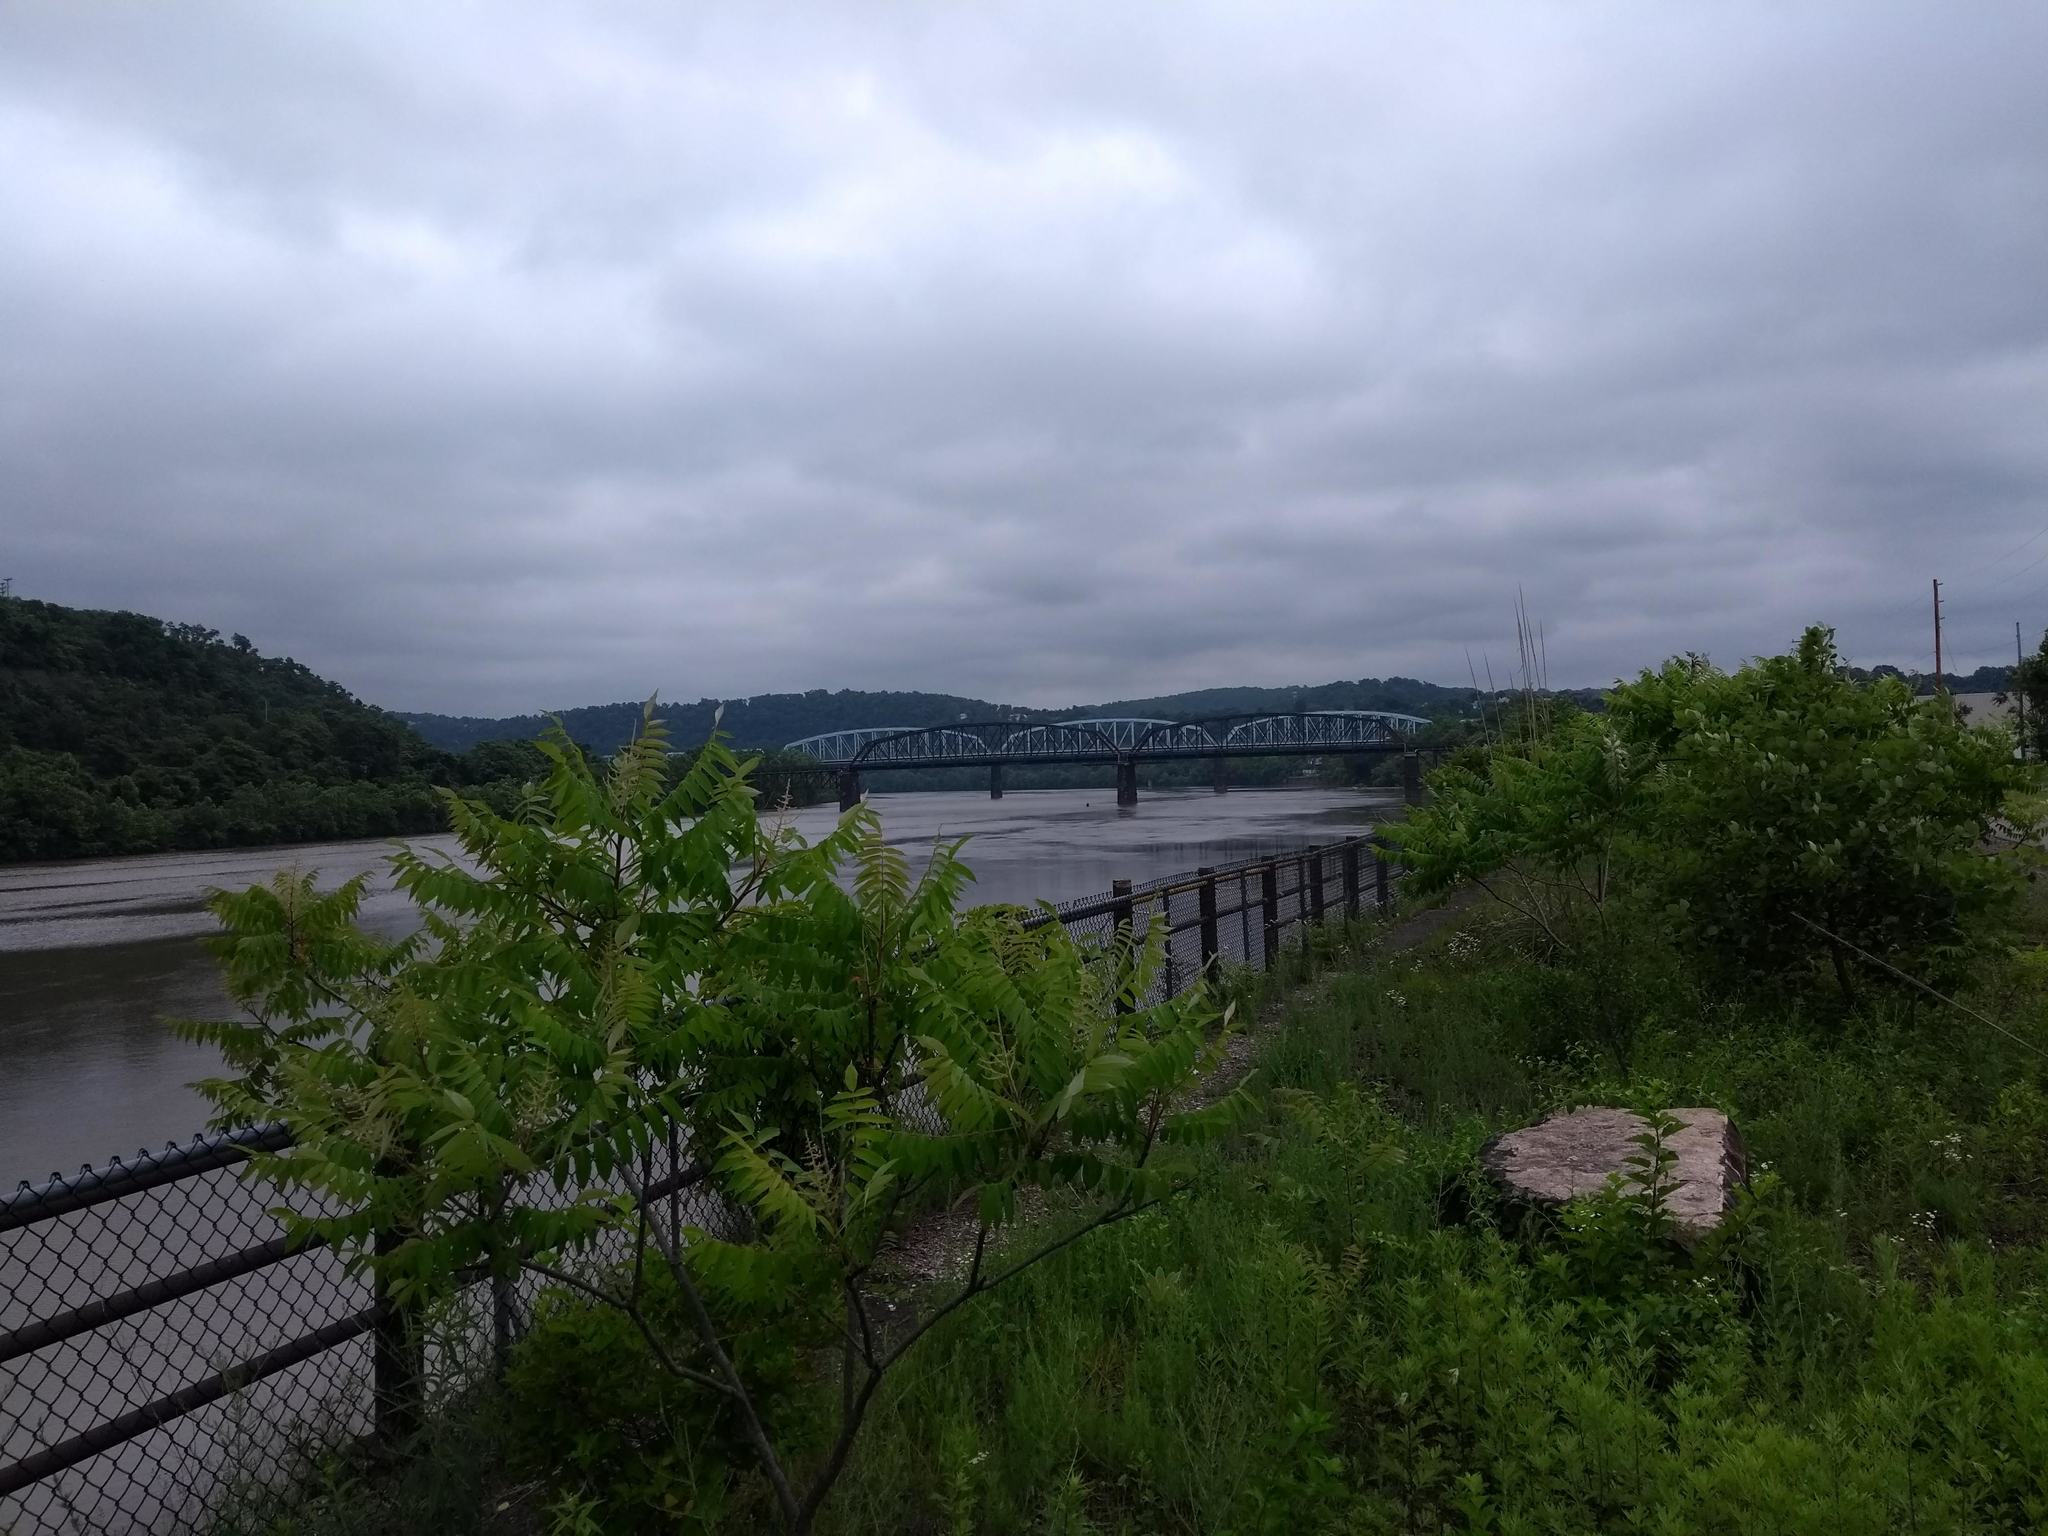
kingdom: Plantae
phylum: Tracheophyta
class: Magnoliopsida
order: Sapindales
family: Anacardiaceae
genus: Rhus
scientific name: Rhus typhina
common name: Staghorn sumac
